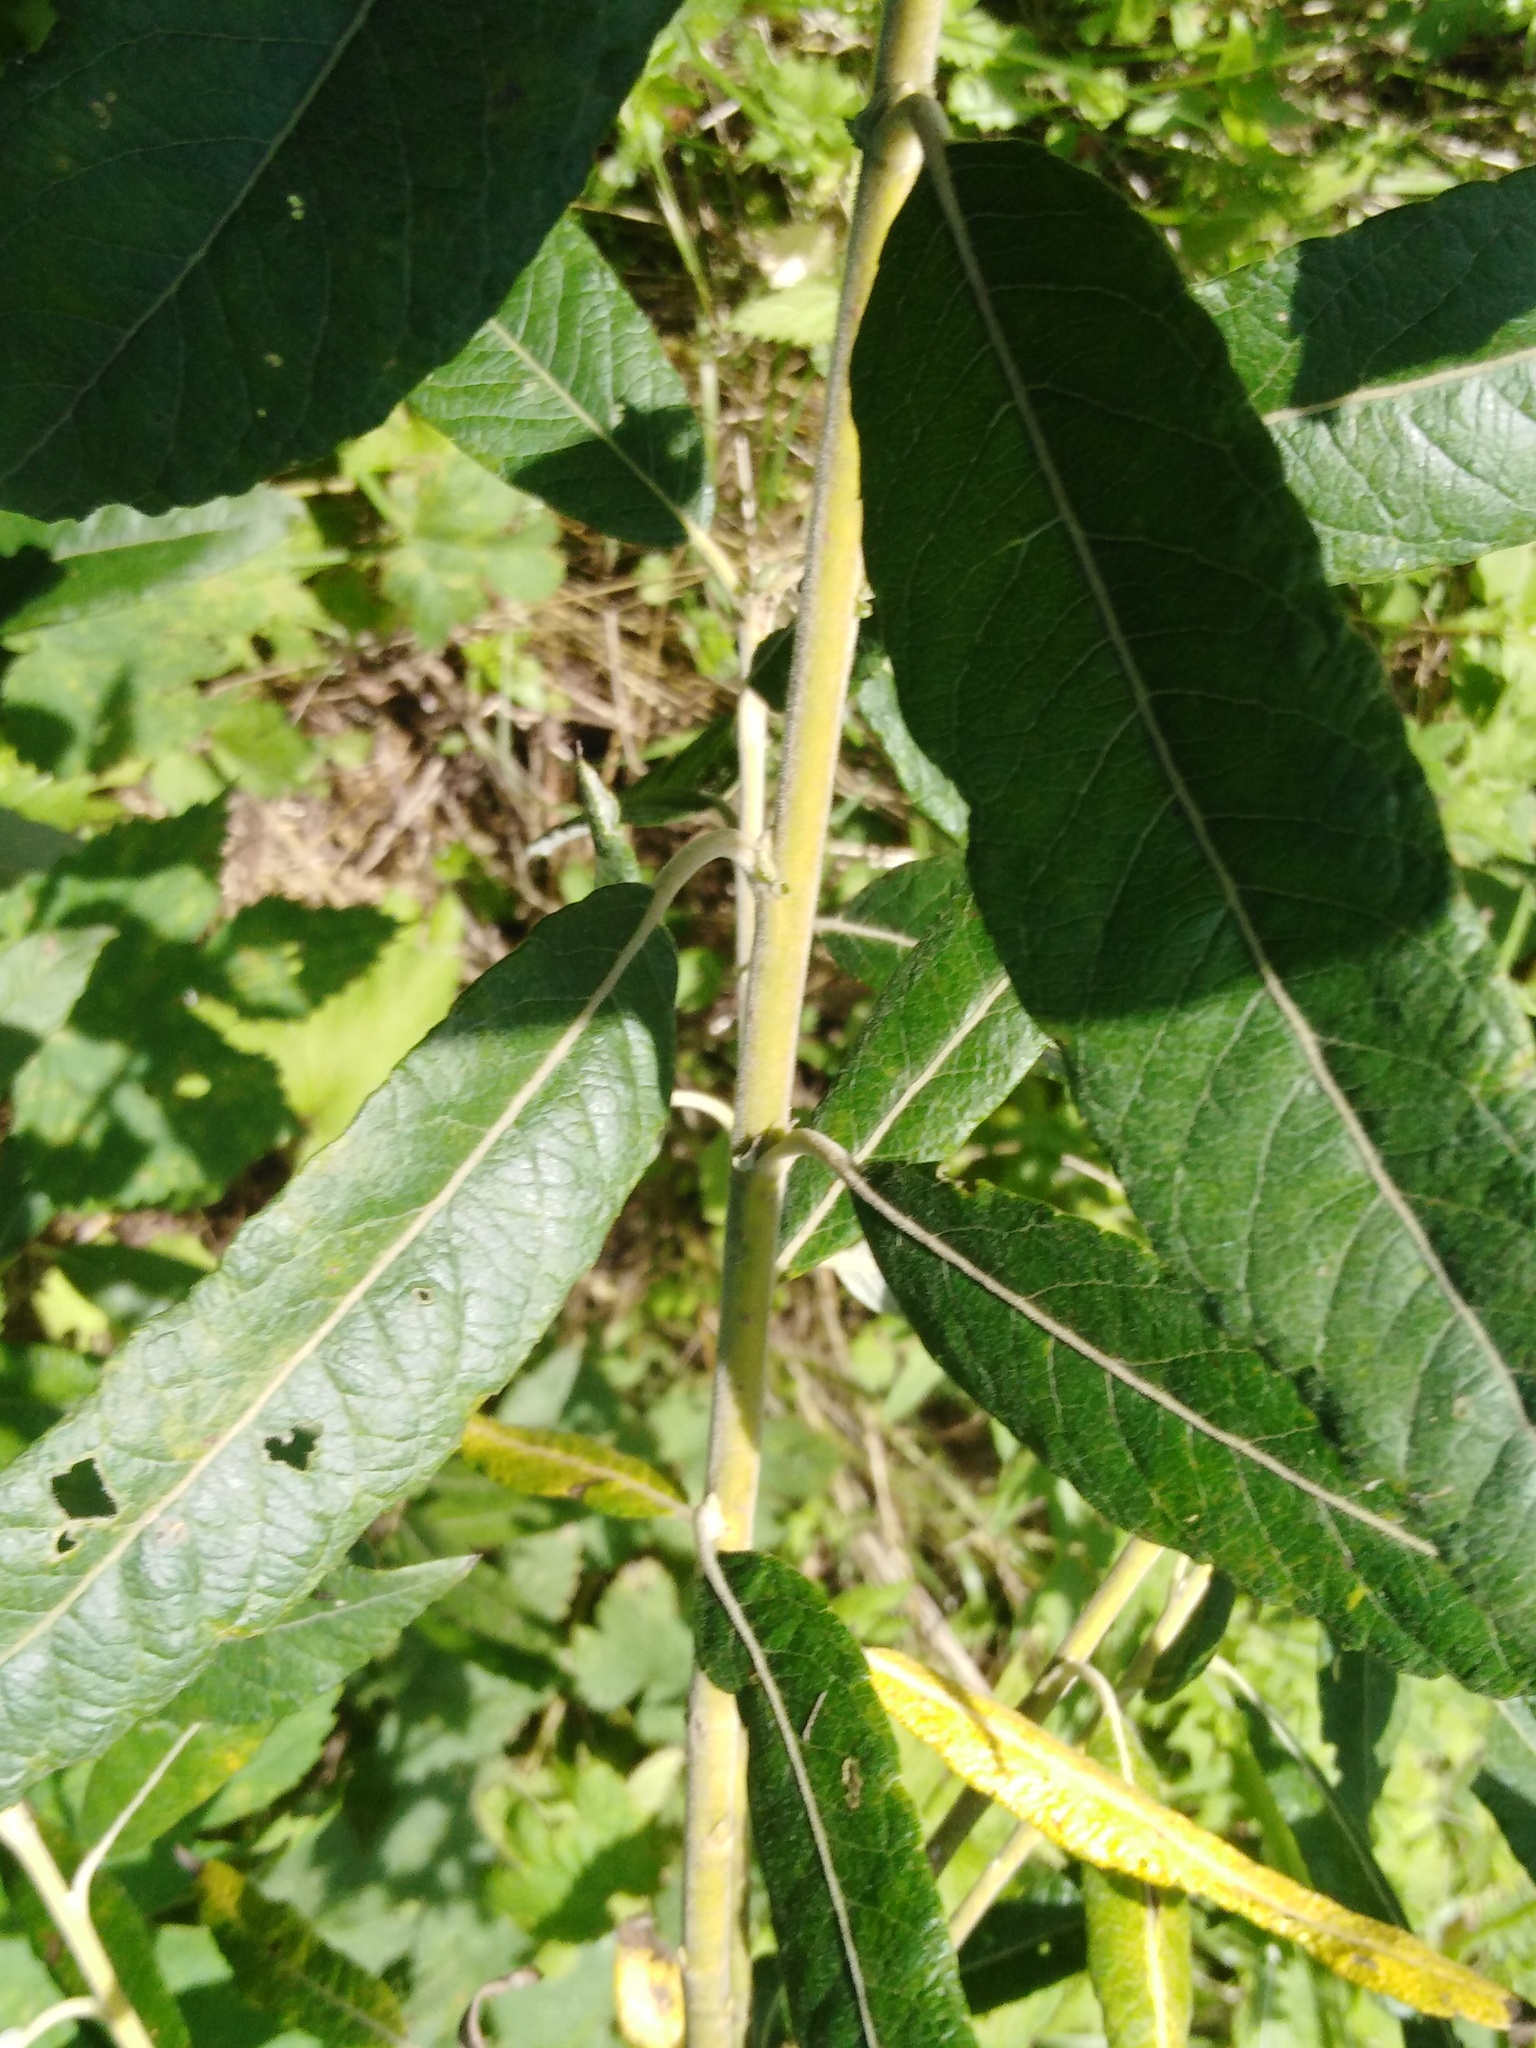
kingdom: Plantae
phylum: Tracheophyta
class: Magnoliopsida
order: Malpighiales
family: Salicaceae
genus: Salix
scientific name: Salix gmelinii
